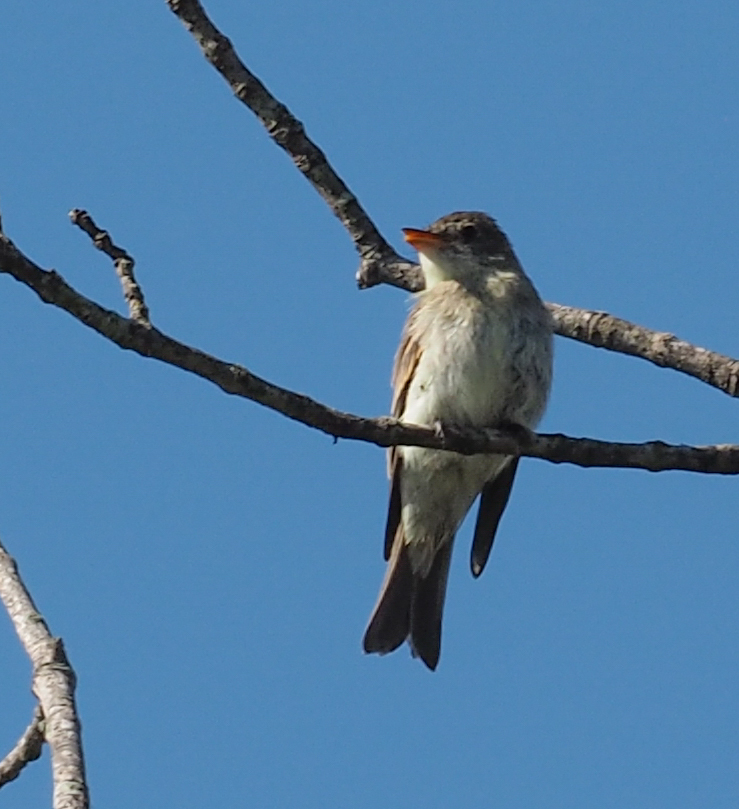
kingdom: Animalia
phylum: Chordata
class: Aves
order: Passeriformes
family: Tyrannidae
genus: Contopus
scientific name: Contopus virens
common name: Eastern wood-pewee
